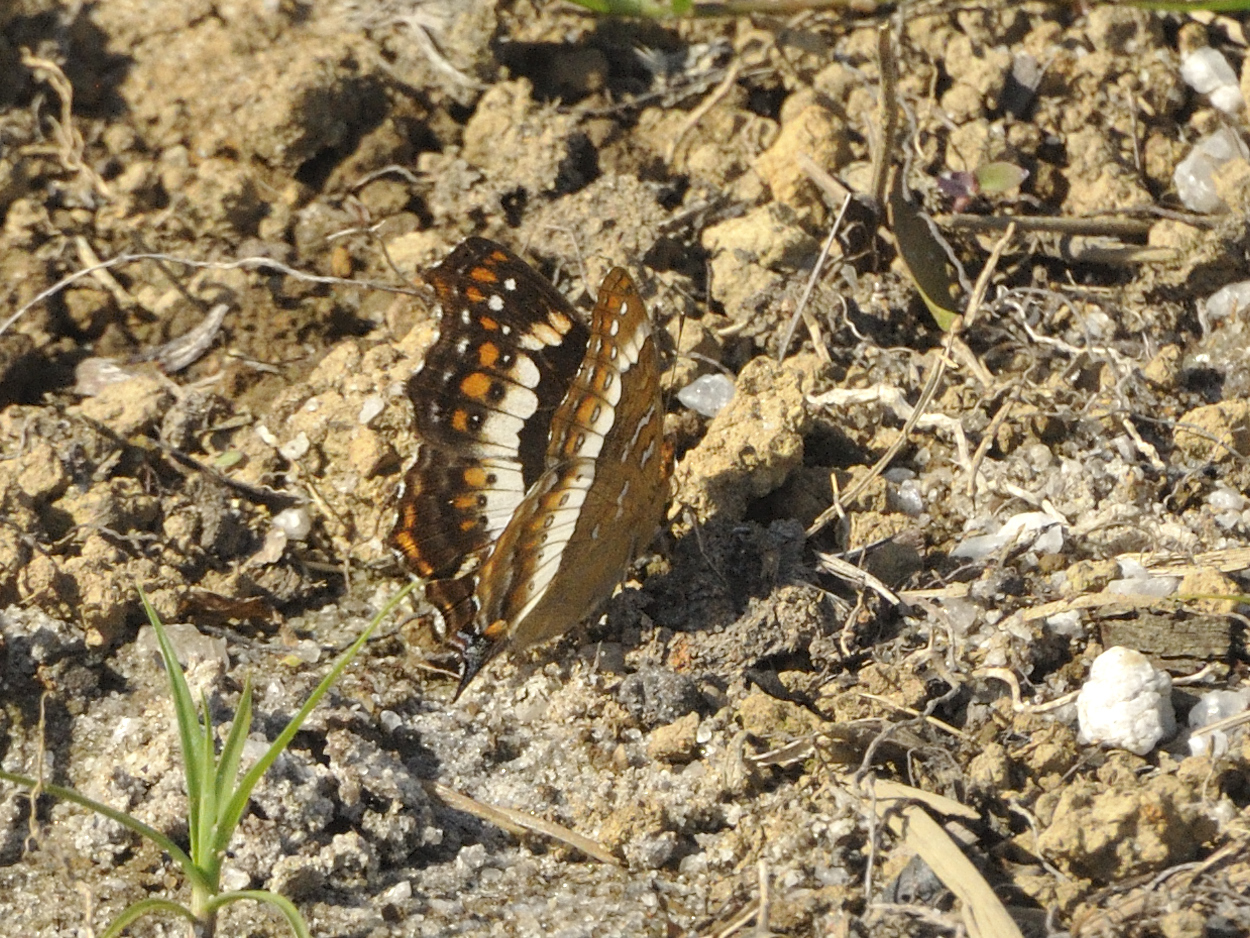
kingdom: Animalia
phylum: Arthropoda
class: Insecta
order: Lepidoptera
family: Nymphalidae
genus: Precis
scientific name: Precis andremiaja
